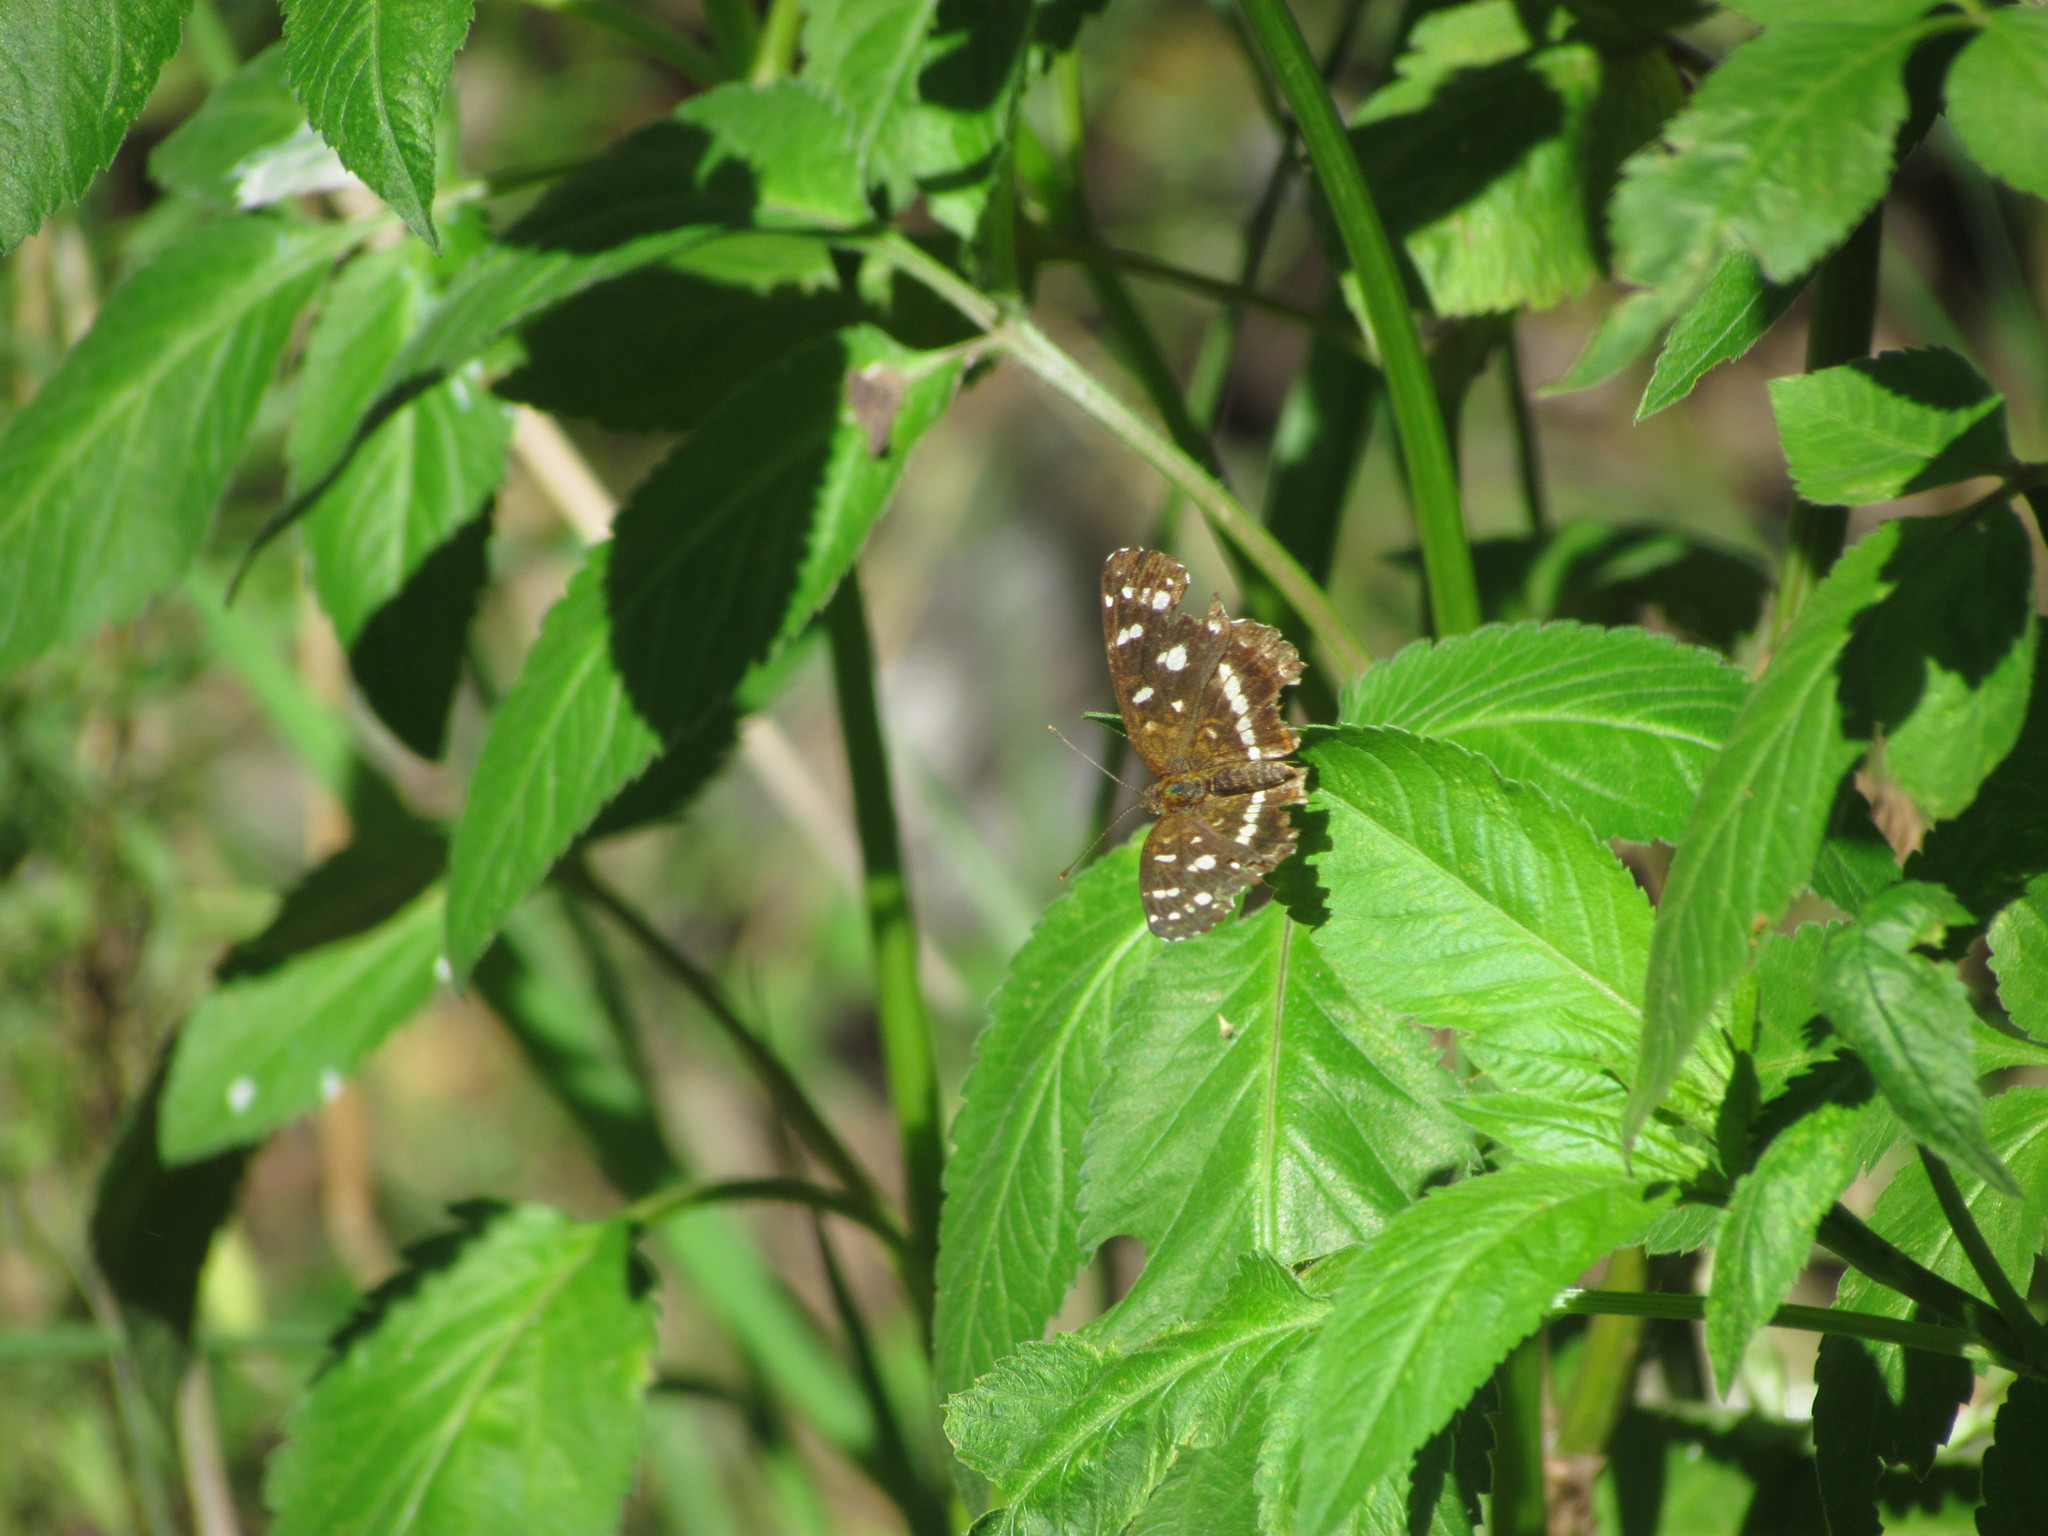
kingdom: Animalia
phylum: Arthropoda
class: Insecta
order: Lepidoptera
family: Nymphalidae
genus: Ortilia
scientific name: Ortilia ithra
